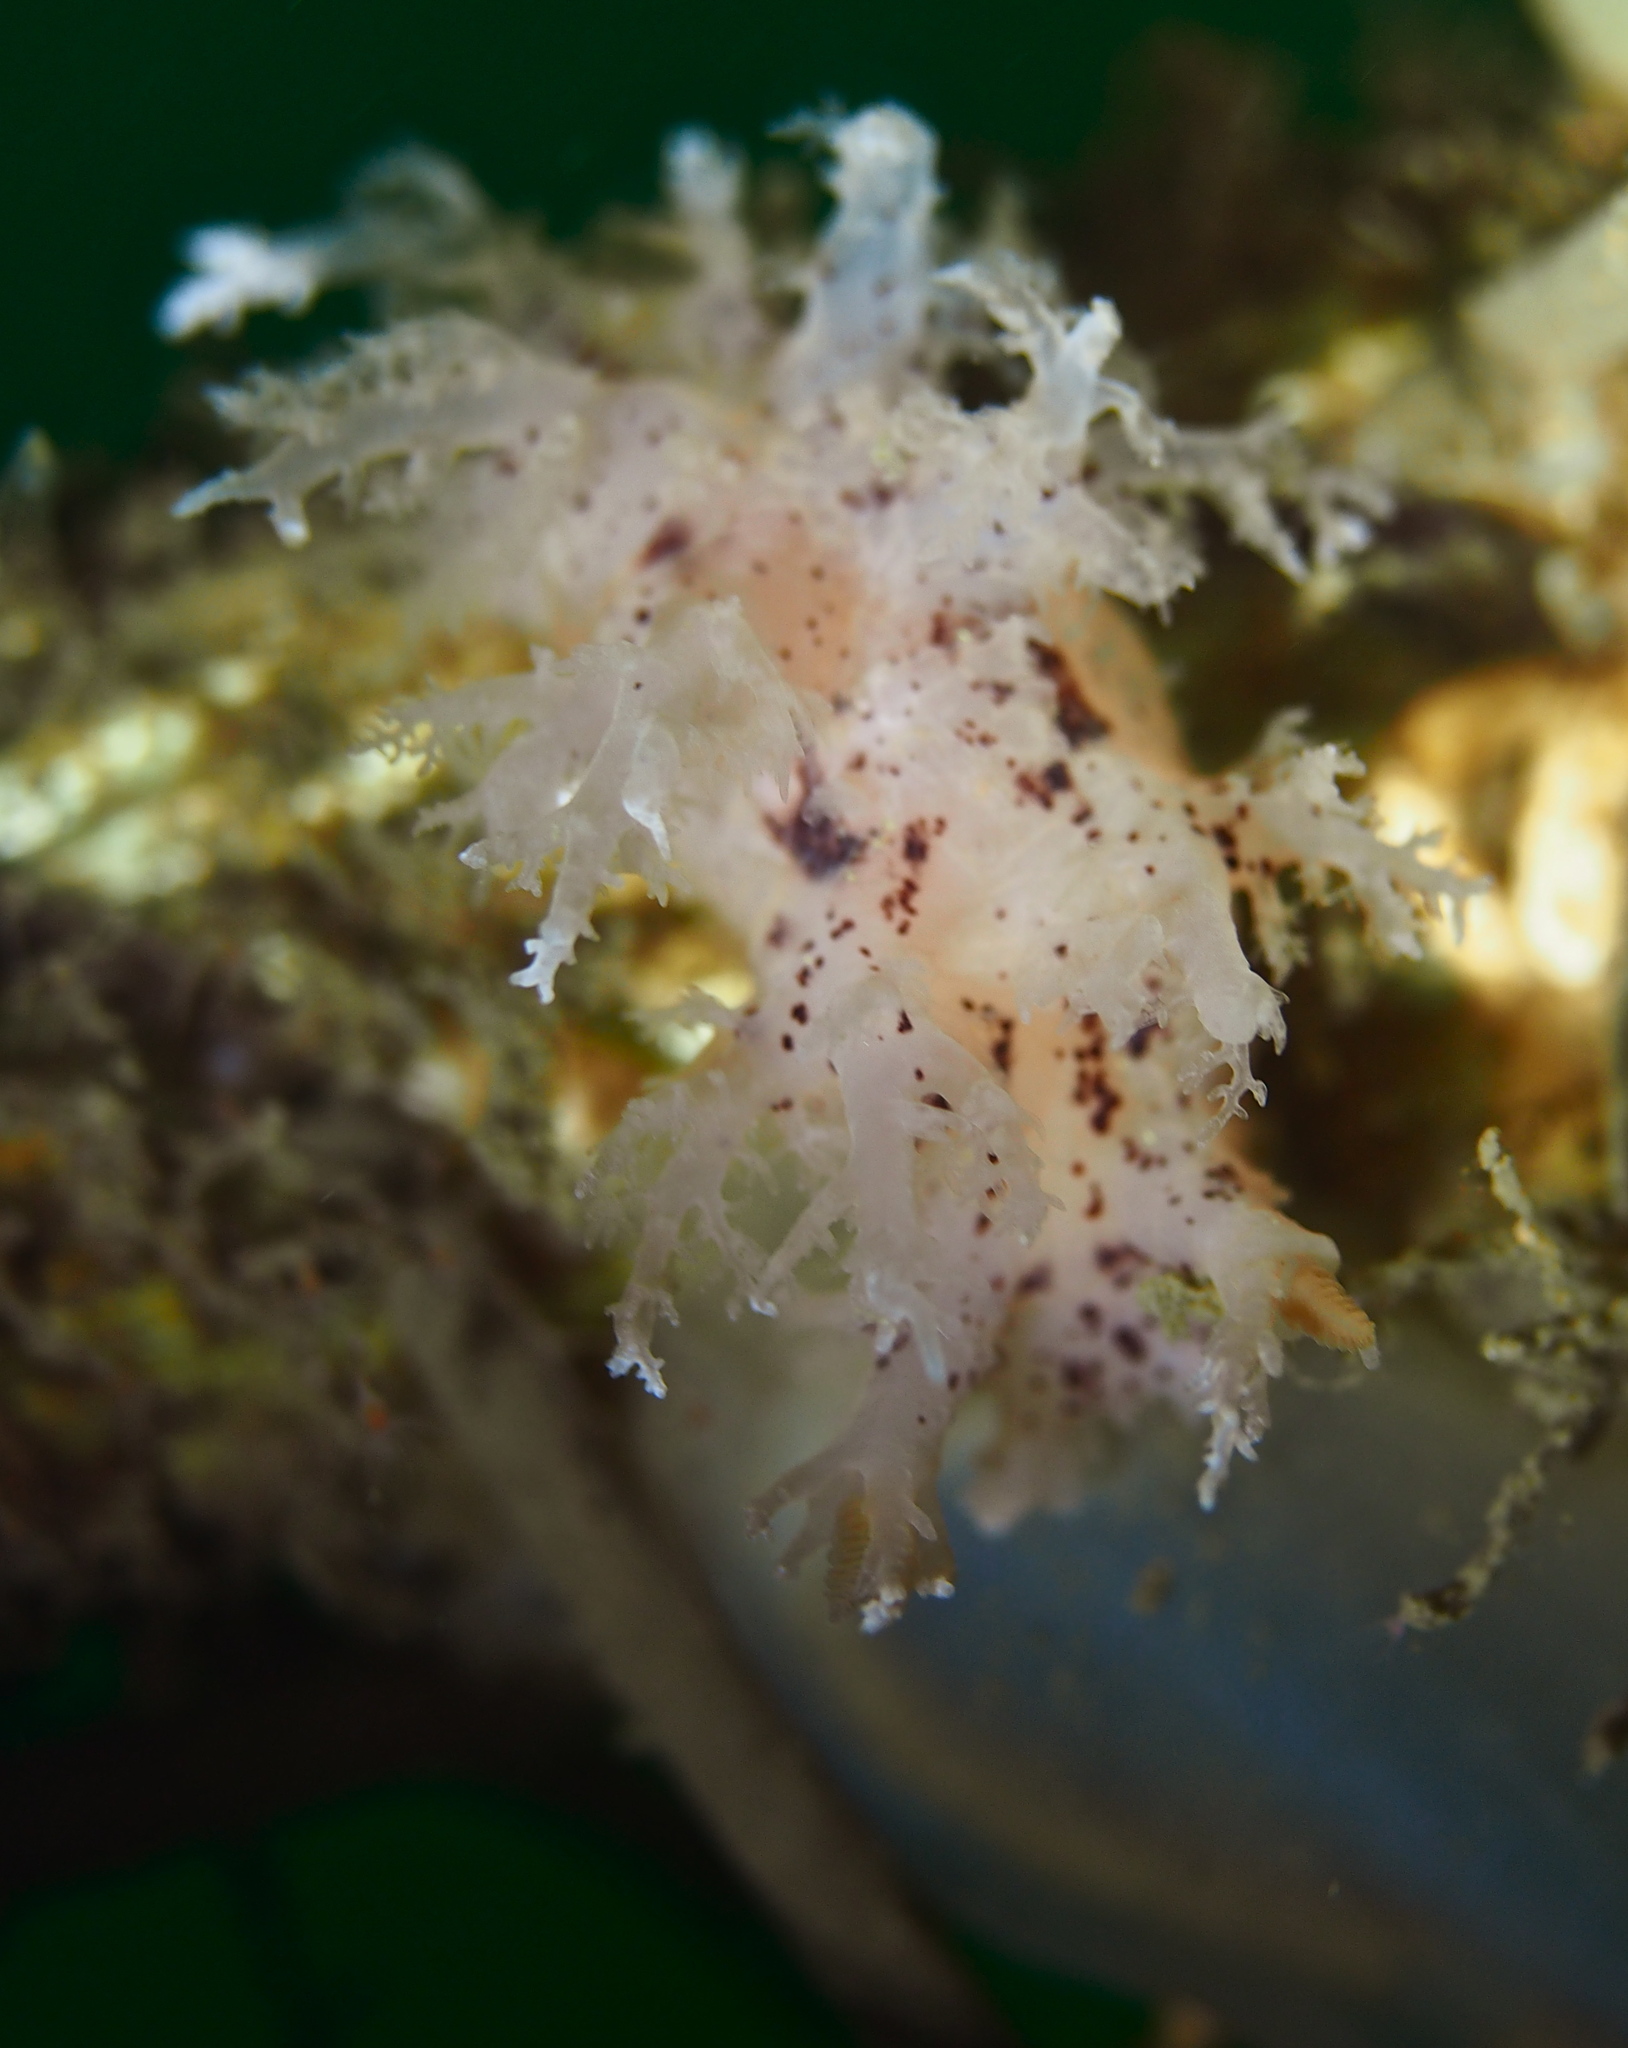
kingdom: Animalia
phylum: Mollusca
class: Gastropoda
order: Nudibranchia
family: Dendronotidae
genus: Dendronotus
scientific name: Dendronotus lacteus
